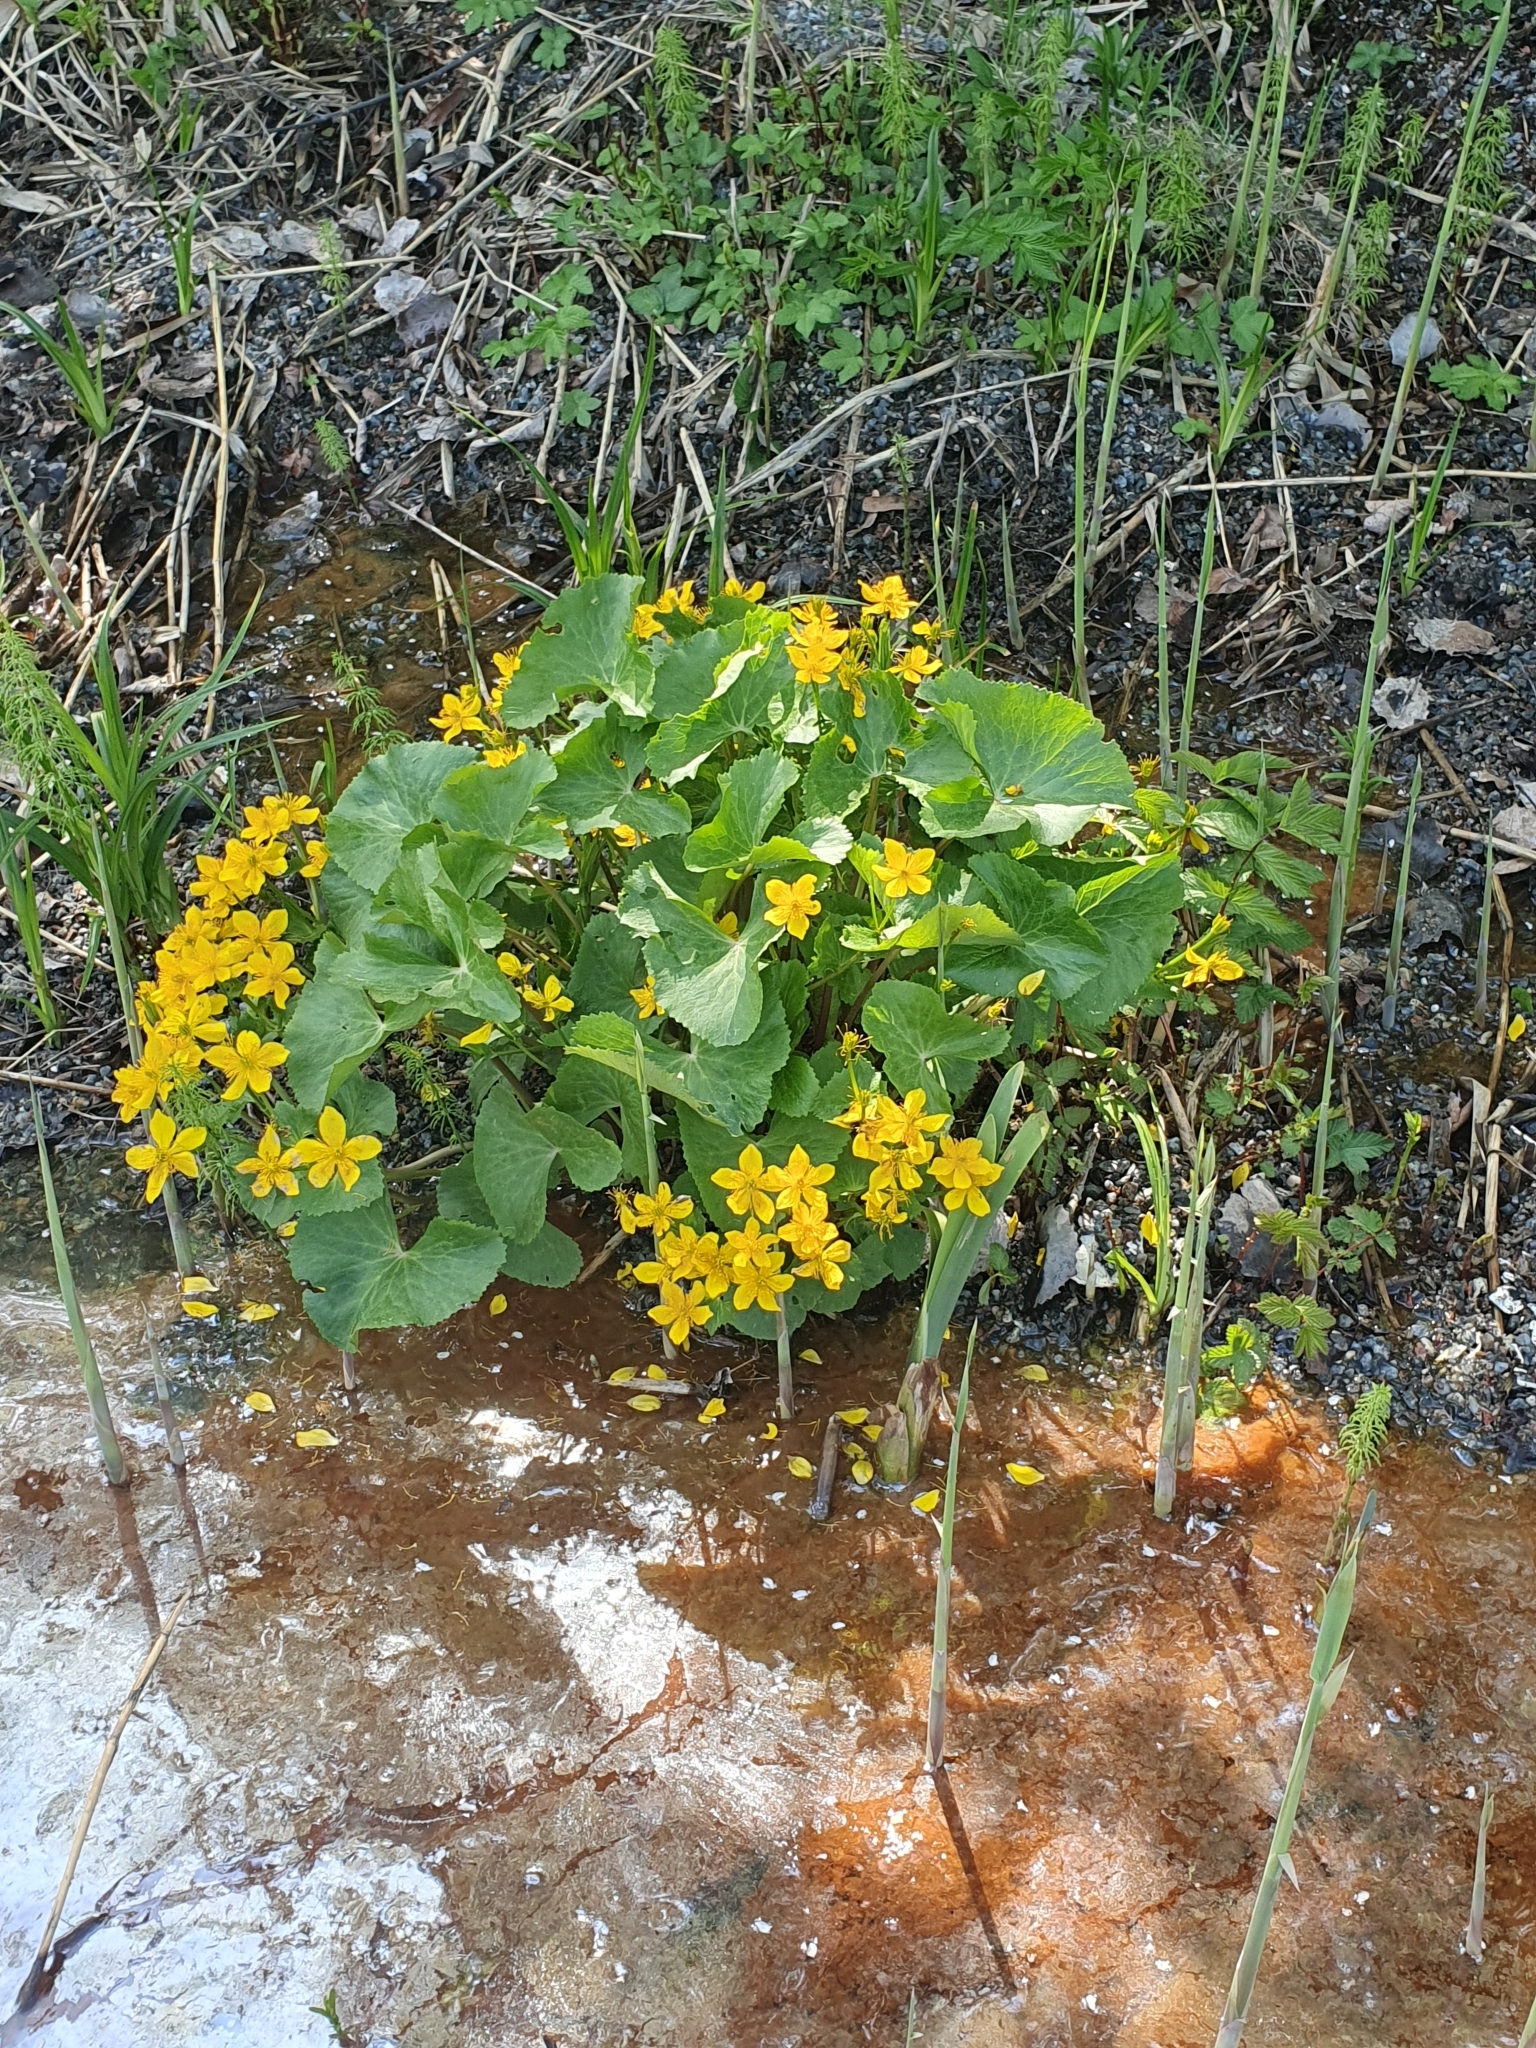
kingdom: Plantae
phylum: Tracheophyta
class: Magnoliopsida
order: Ranunculales
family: Ranunculaceae
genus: Caltha
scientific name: Caltha palustris
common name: Marsh marigold
